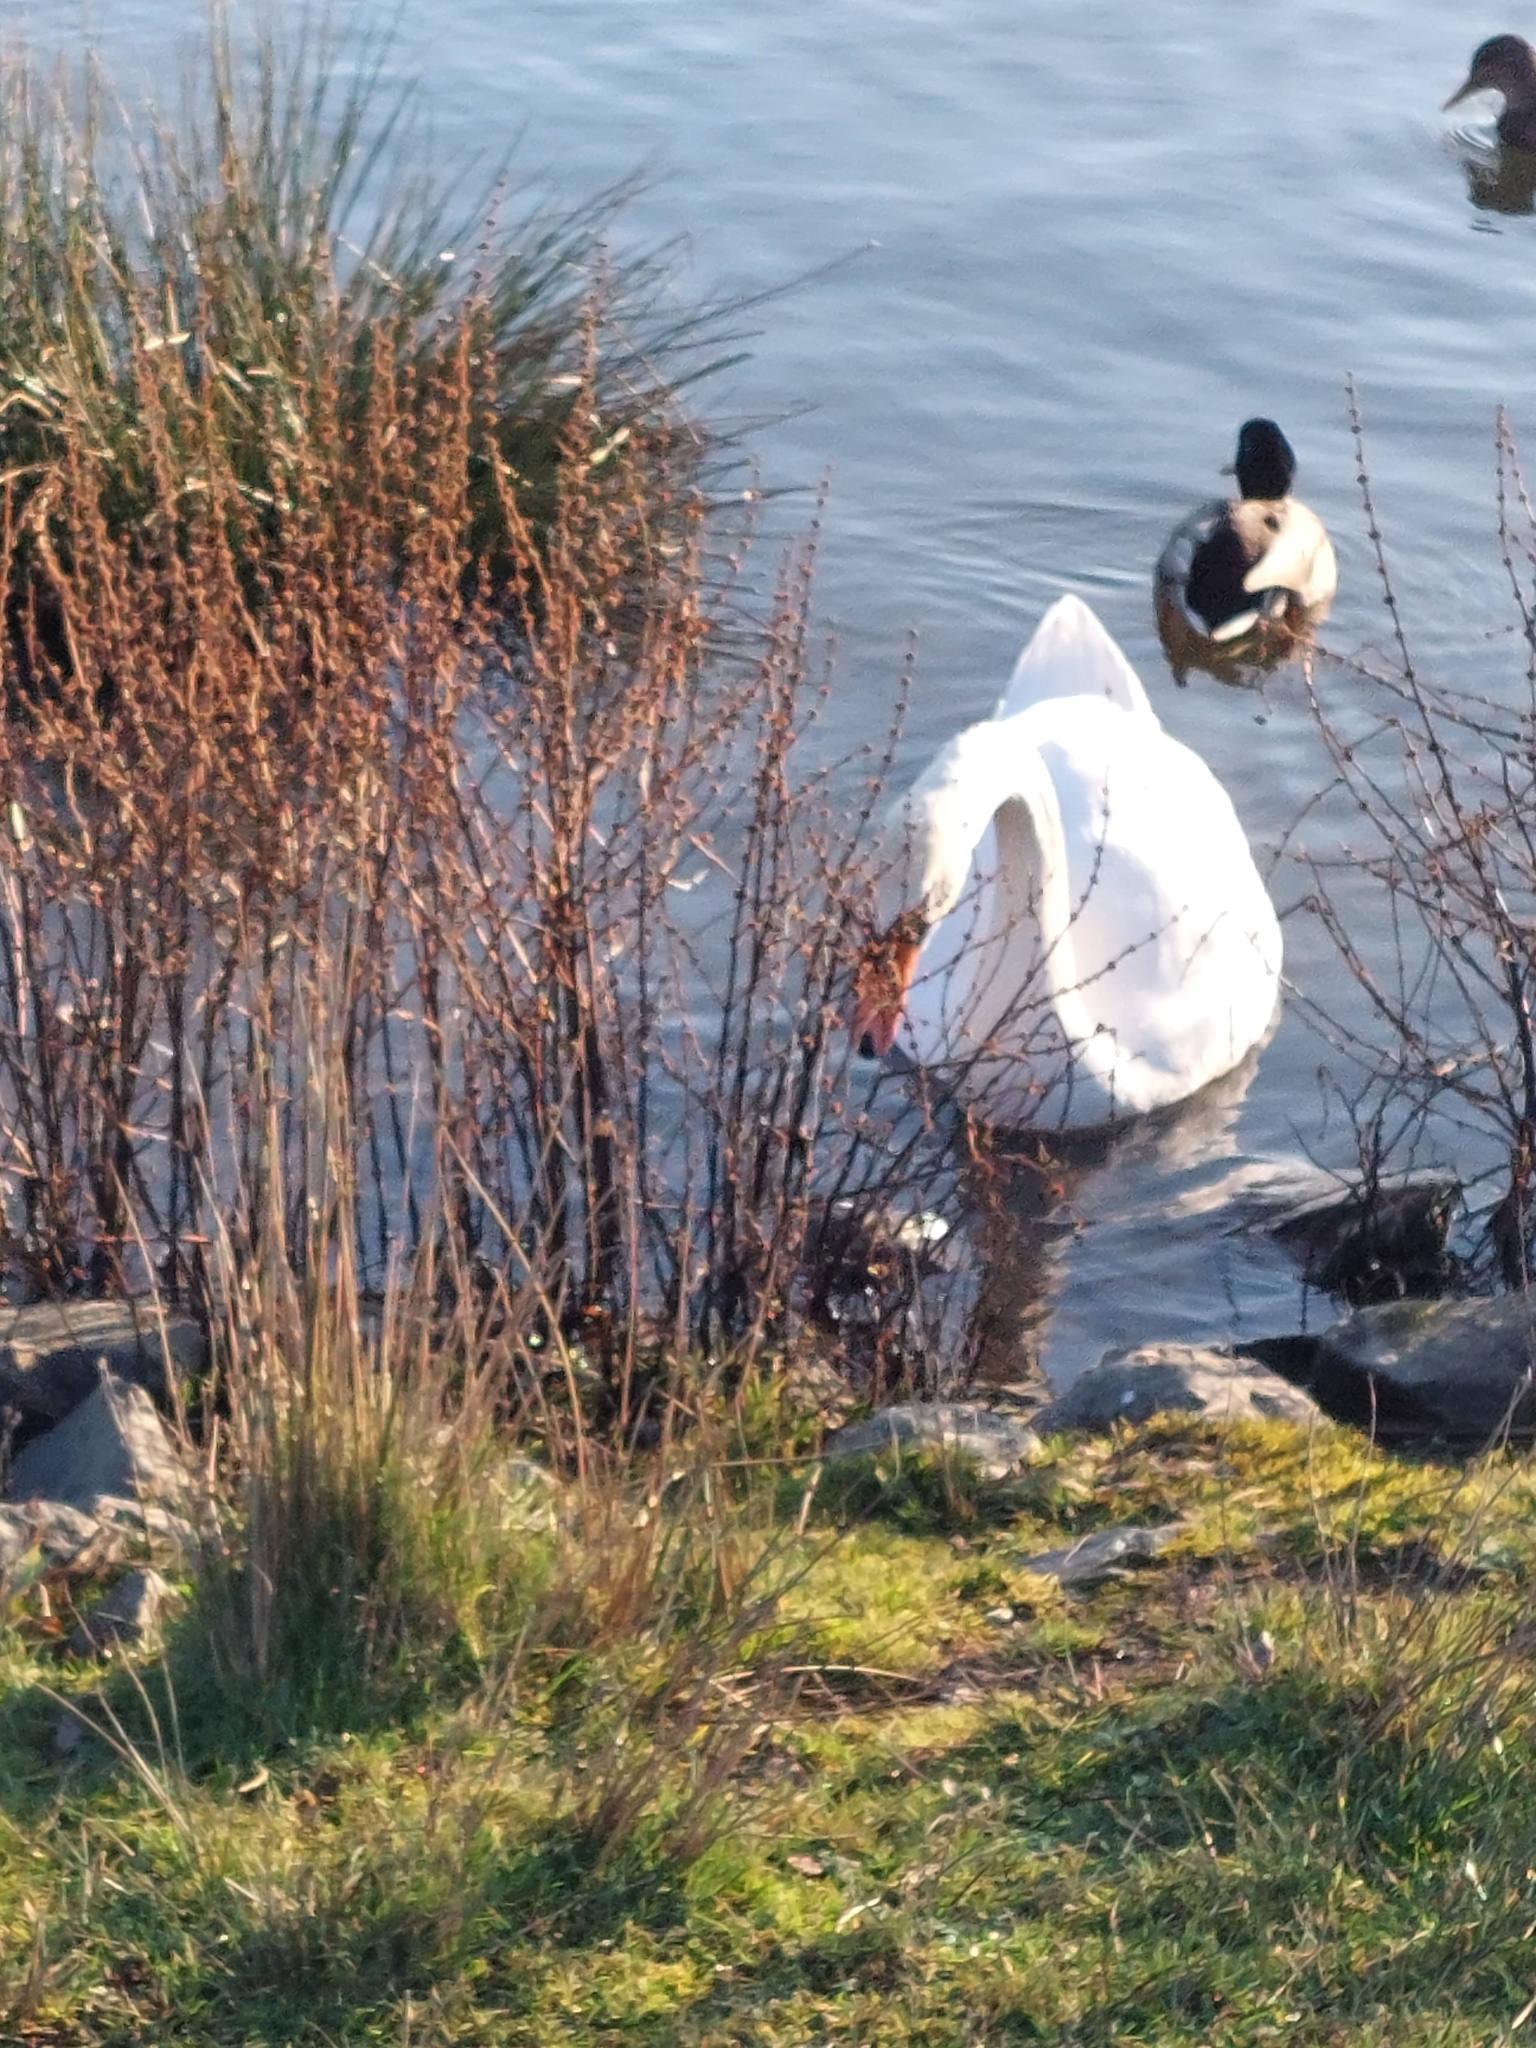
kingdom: Animalia
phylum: Chordata
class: Aves
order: Anseriformes
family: Anatidae
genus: Cygnus
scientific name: Cygnus olor
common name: Mute swan
